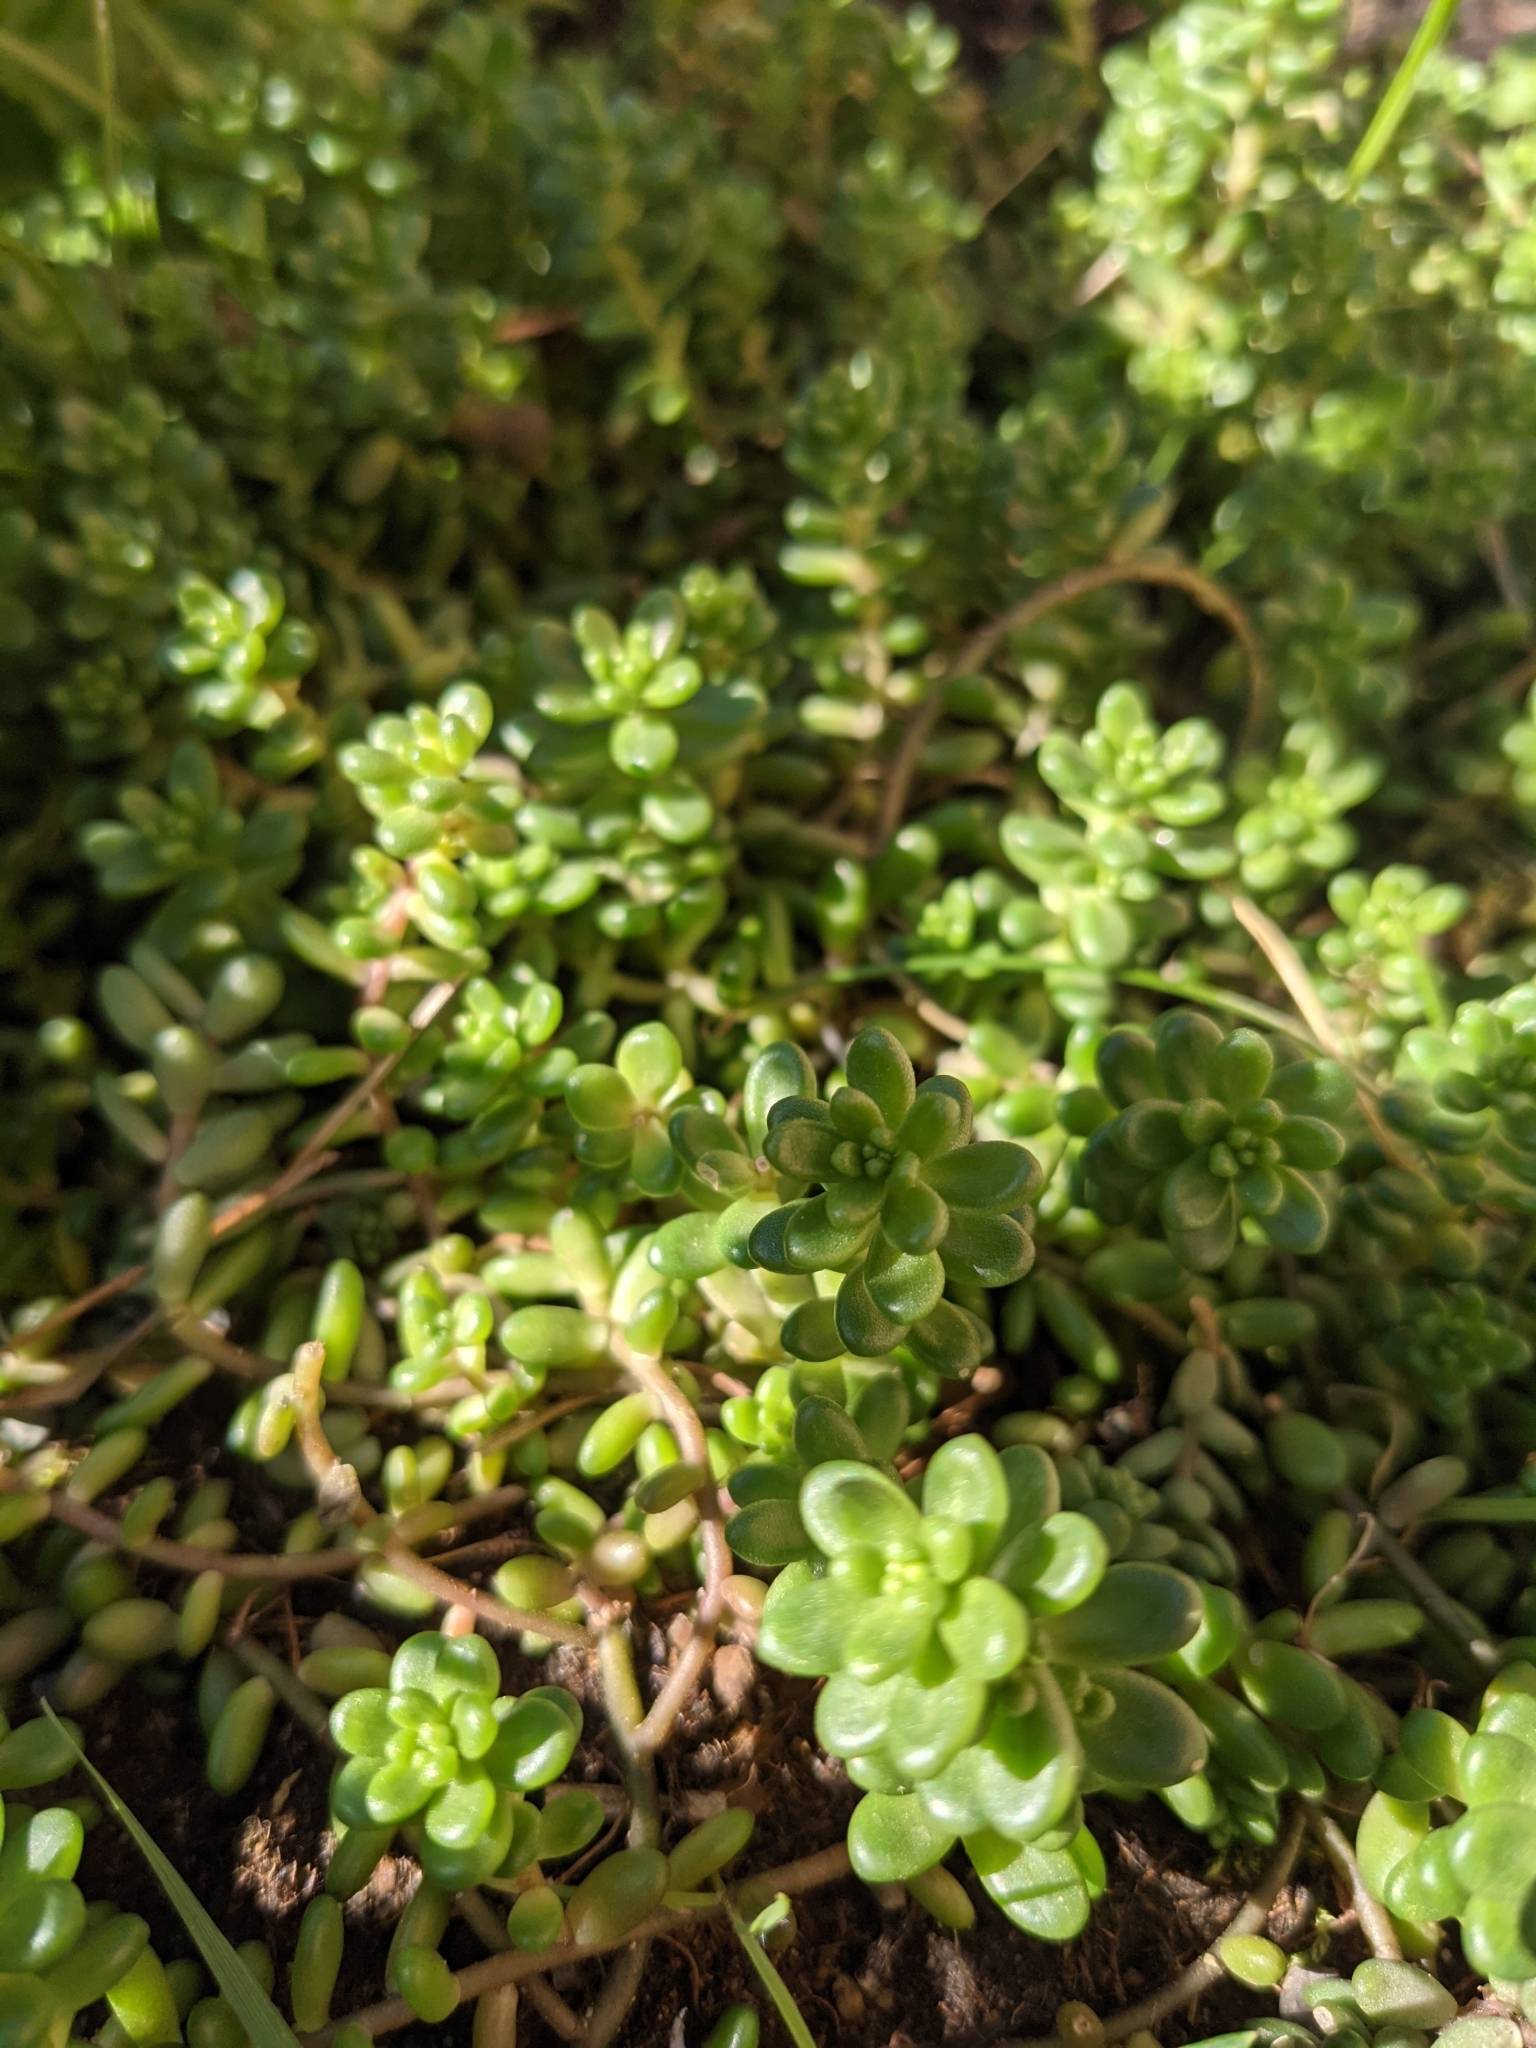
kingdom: Plantae
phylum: Tracheophyta
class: Magnoliopsida
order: Saxifragales
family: Crassulaceae
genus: Sedum
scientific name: Sedum album
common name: White stonecrop
